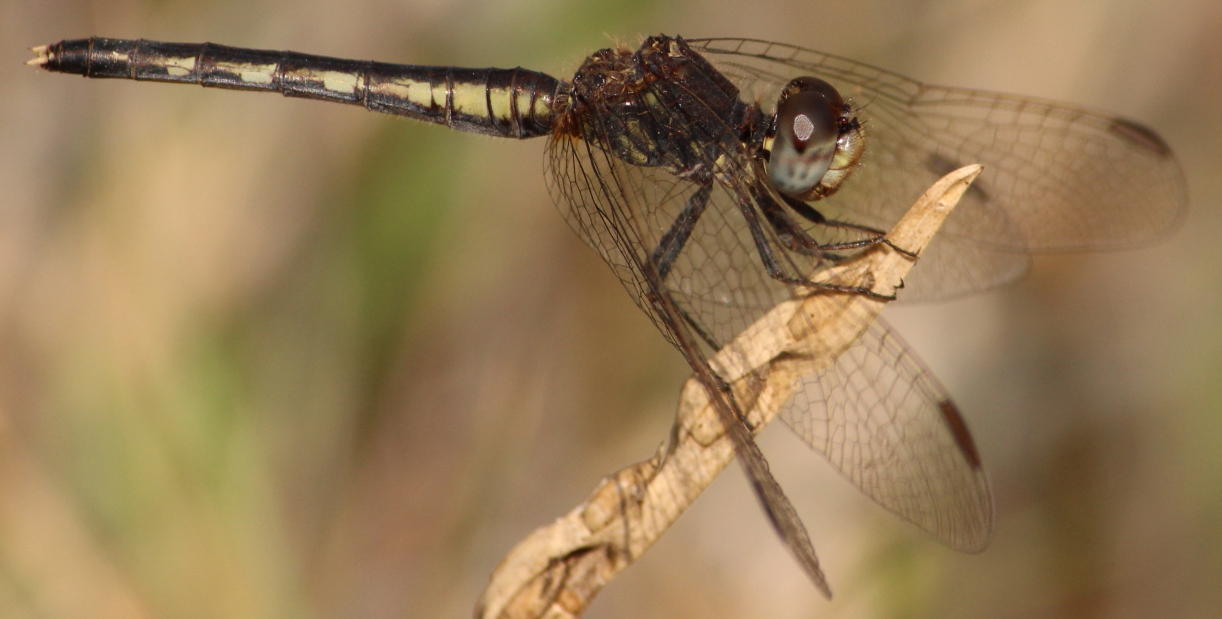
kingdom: Animalia
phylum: Arthropoda
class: Insecta
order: Odonata
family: Libellulidae
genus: Diplacodes
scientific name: Diplacodes lefebvrii
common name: Black percher
